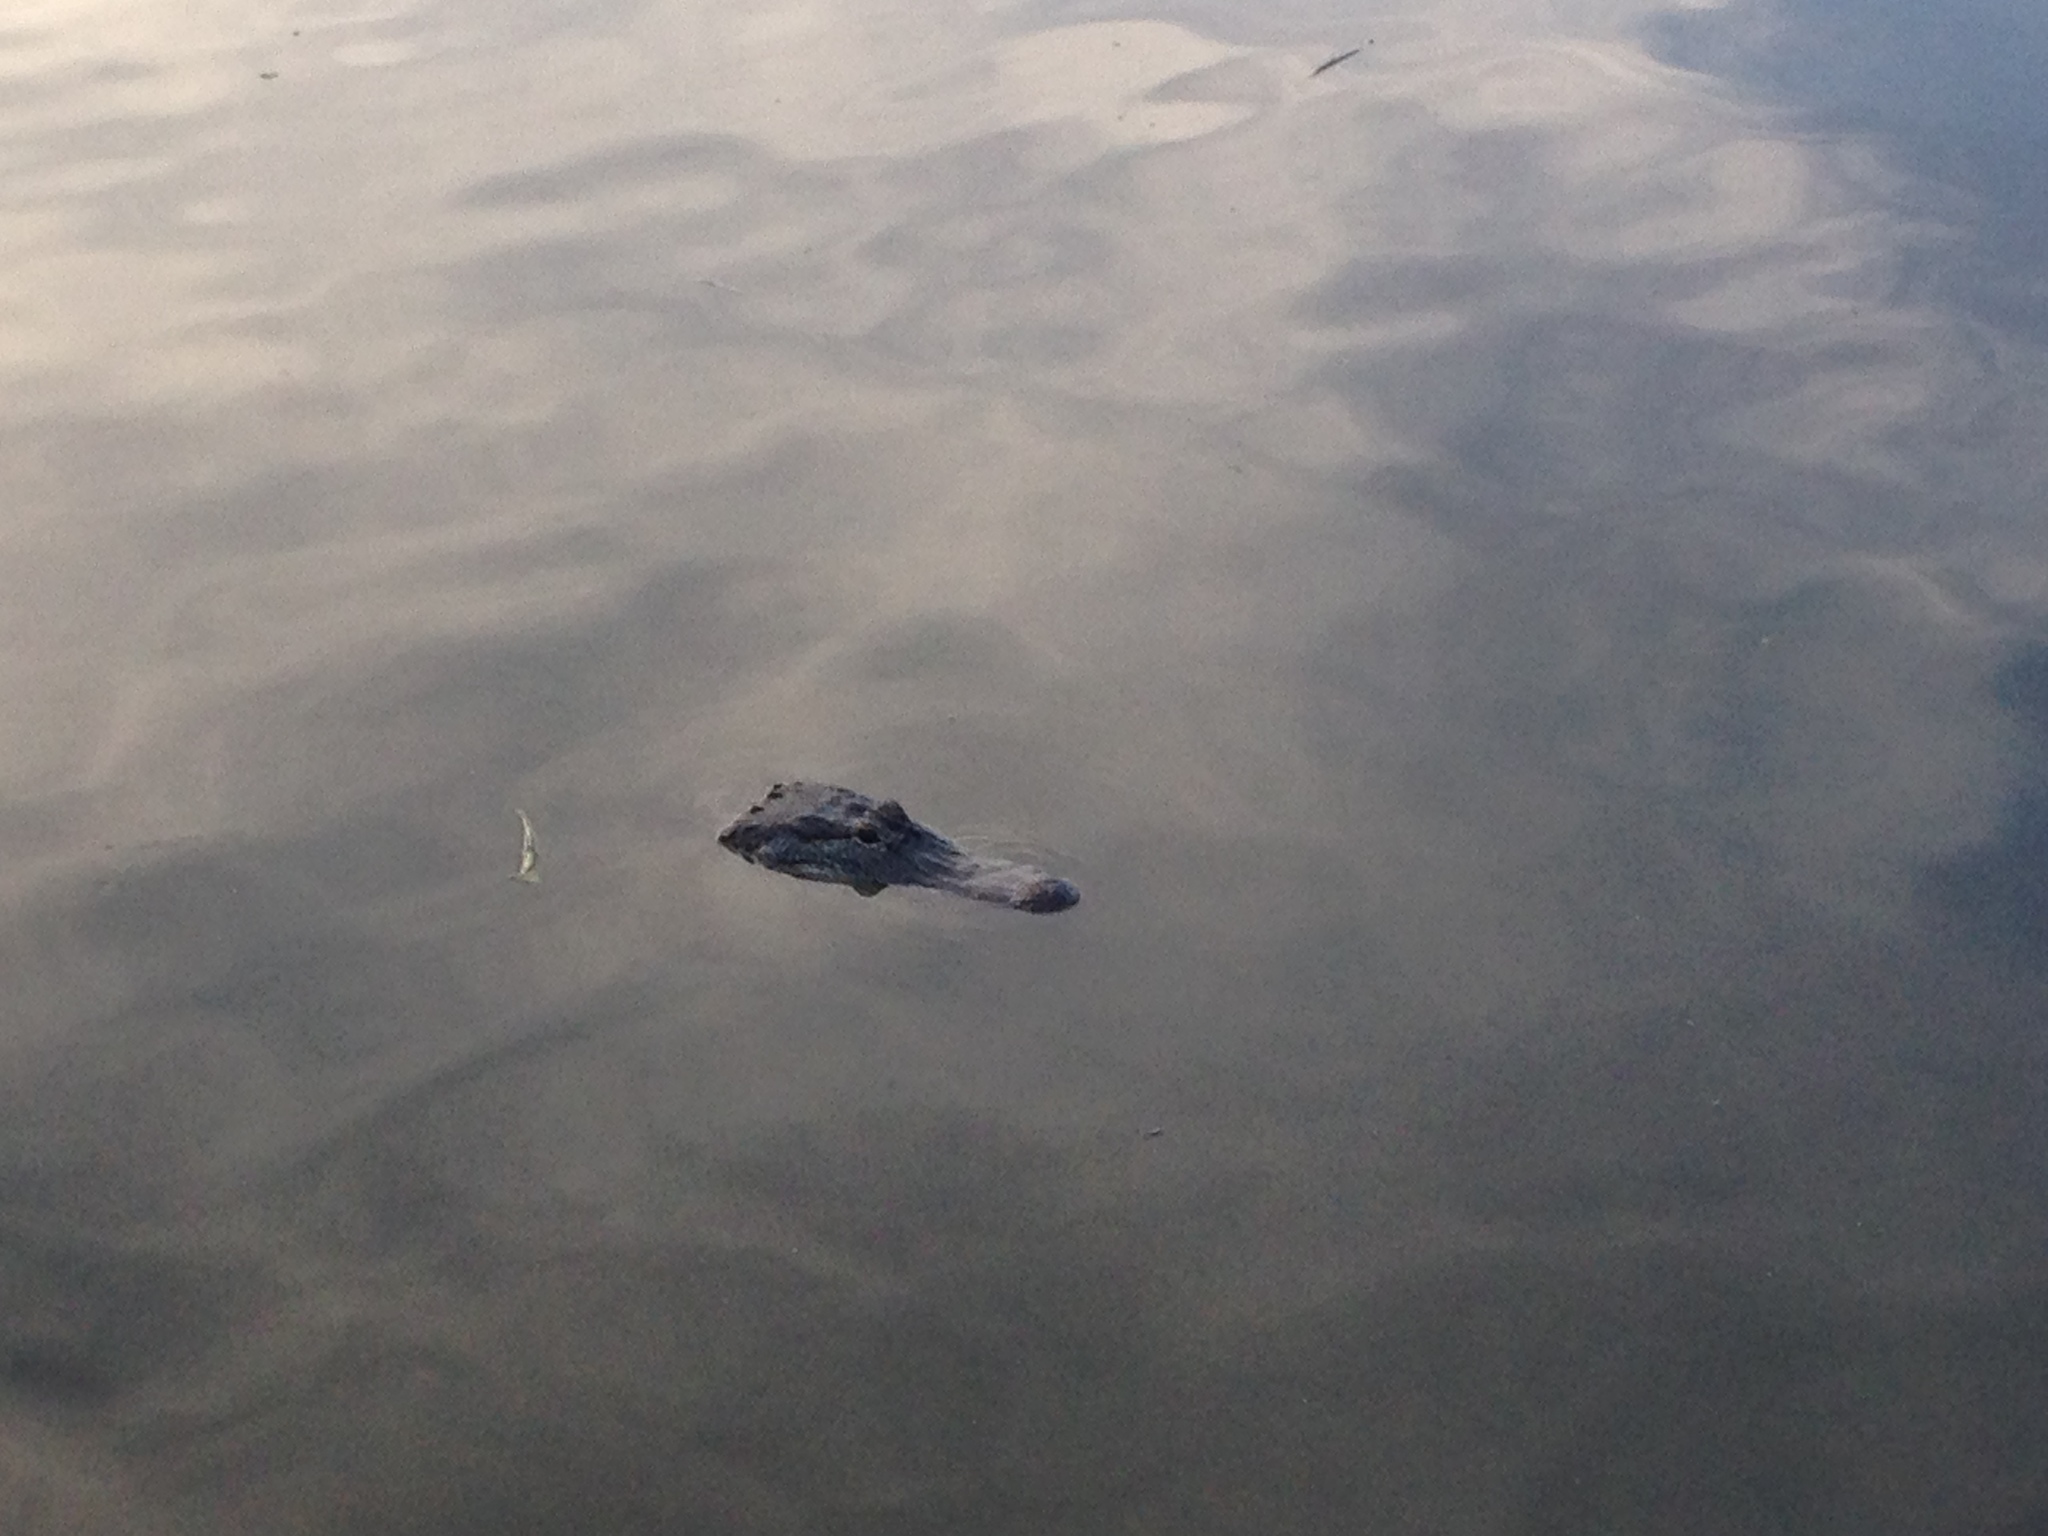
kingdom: Animalia
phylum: Chordata
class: Crocodylia
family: Alligatoridae
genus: Alligator
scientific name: Alligator mississippiensis
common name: American alligator
